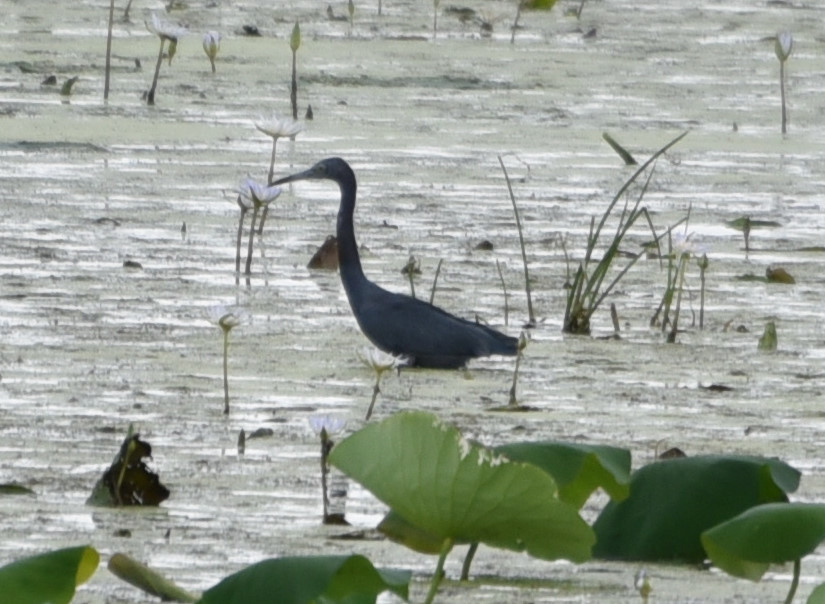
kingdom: Animalia
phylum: Chordata
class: Aves
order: Pelecaniformes
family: Ardeidae
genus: Egretta
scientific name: Egretta caerulea
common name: Little blue heron
